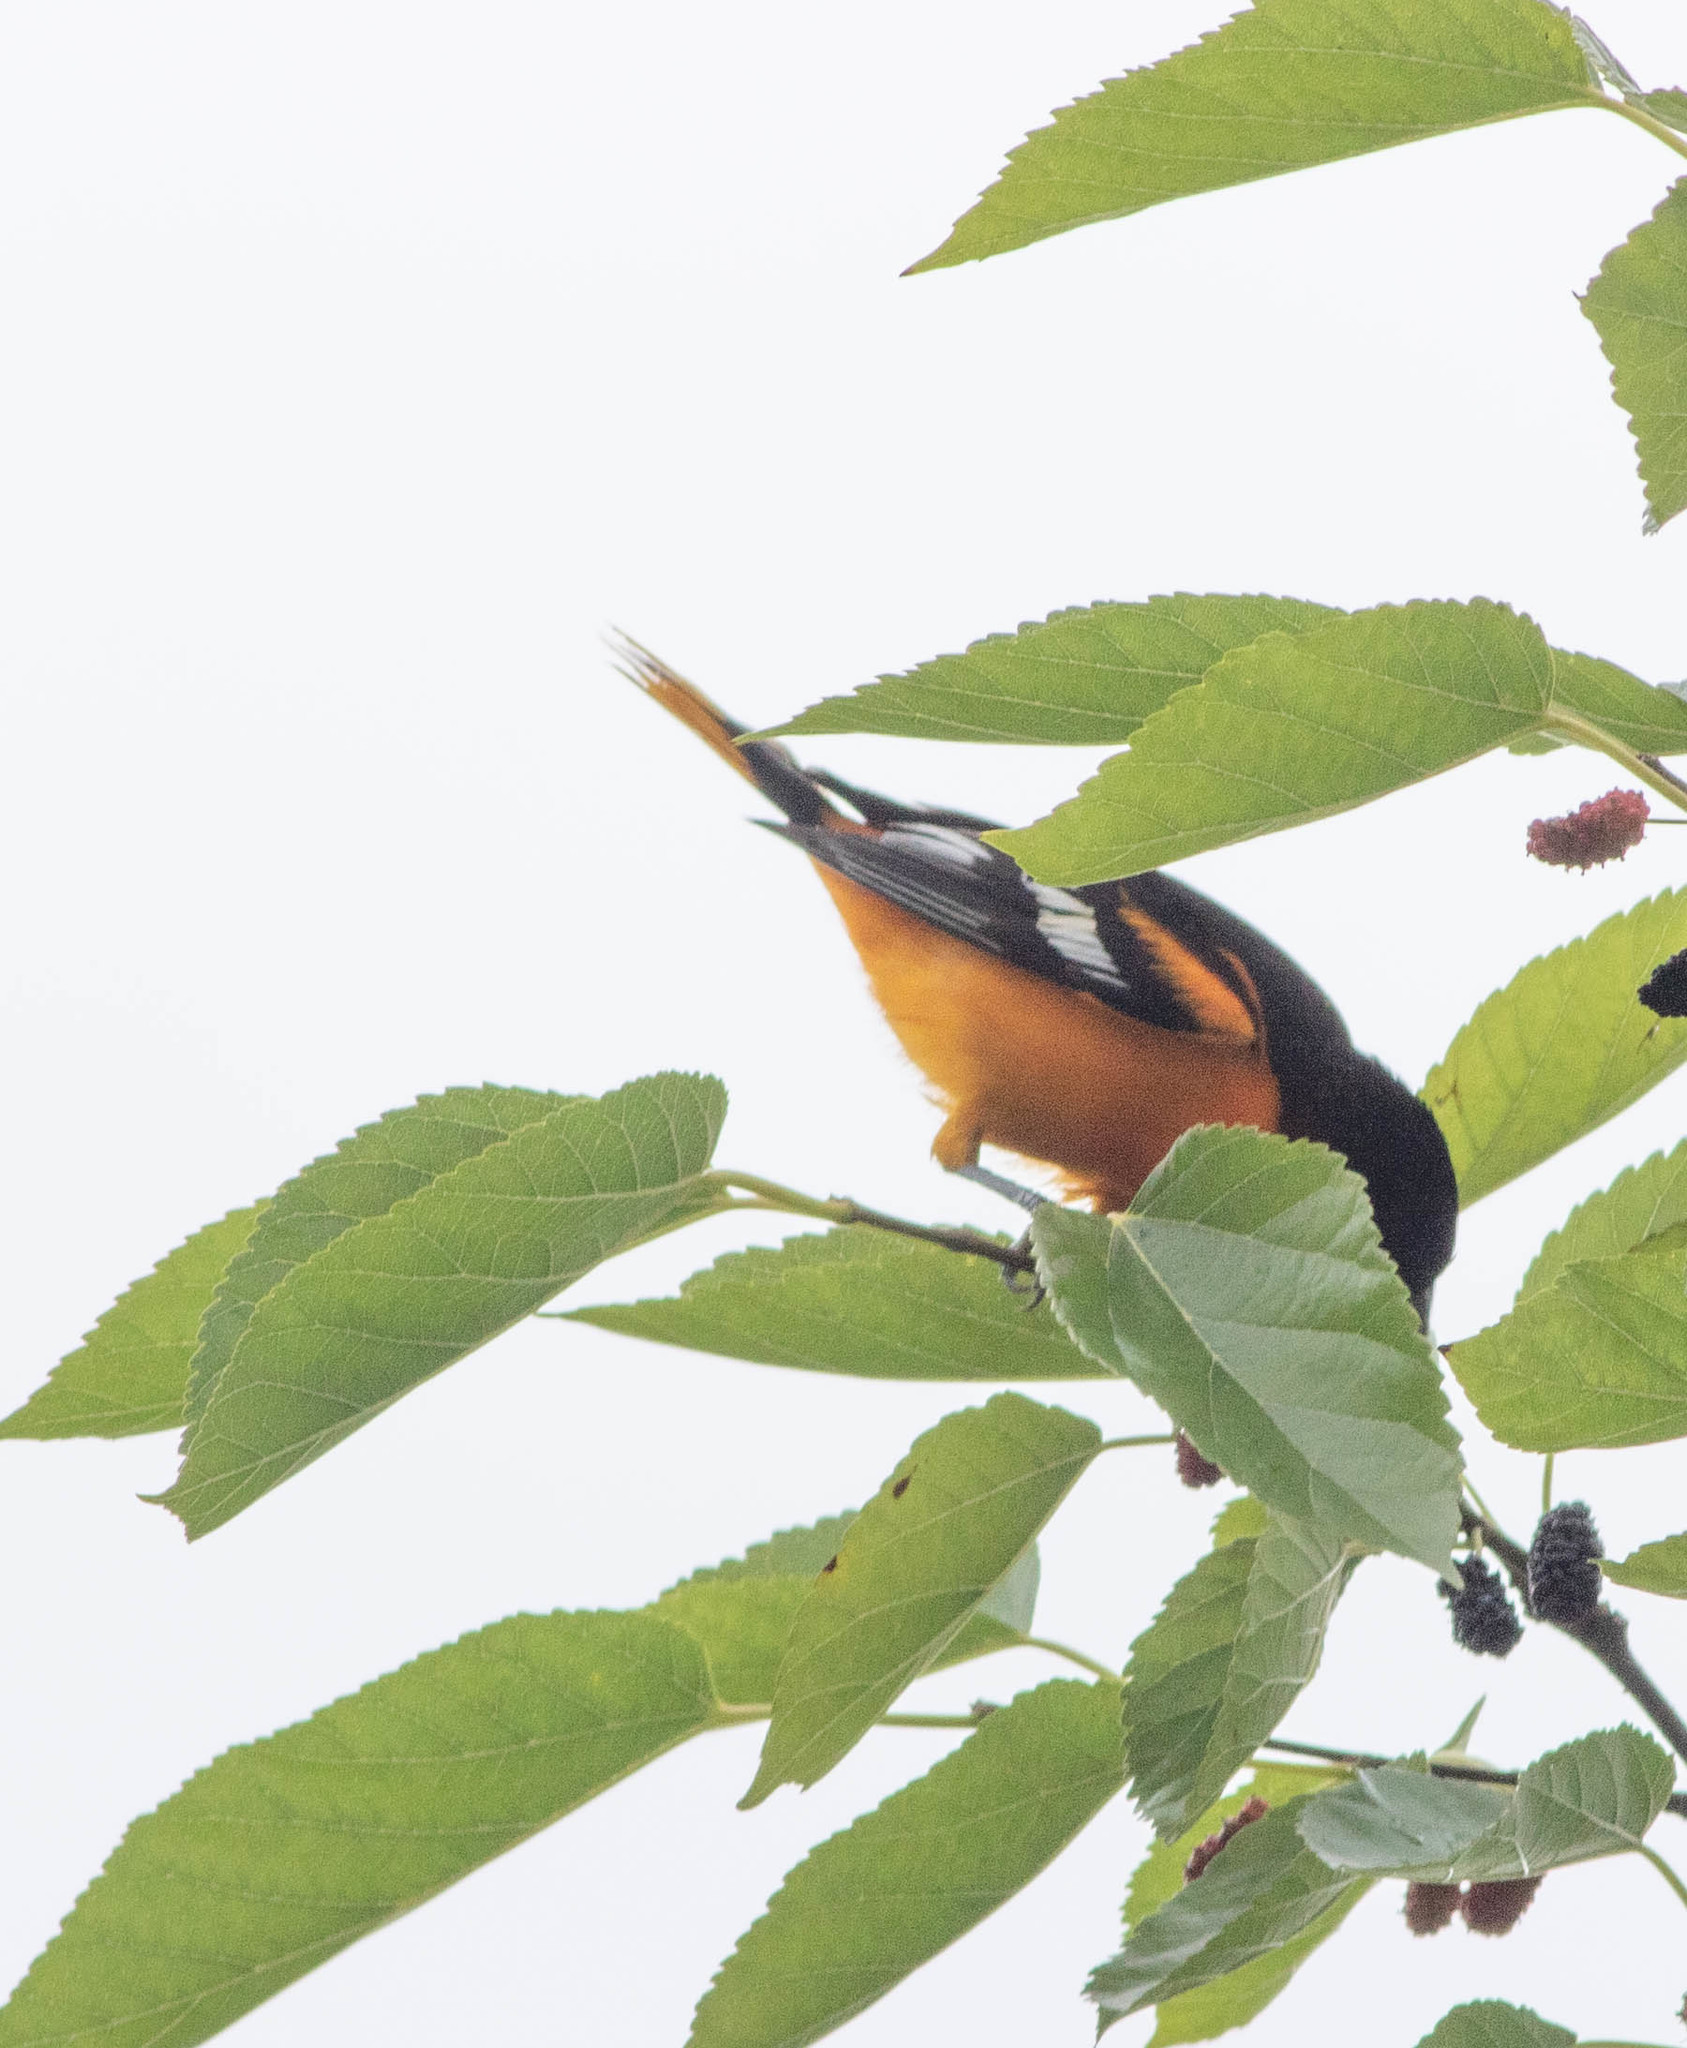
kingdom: Animalia
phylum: Chordata
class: Aves
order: Passeriformes
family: Icteridae
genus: Icterus
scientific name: Icterus galbula
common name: Baltimore oriole
